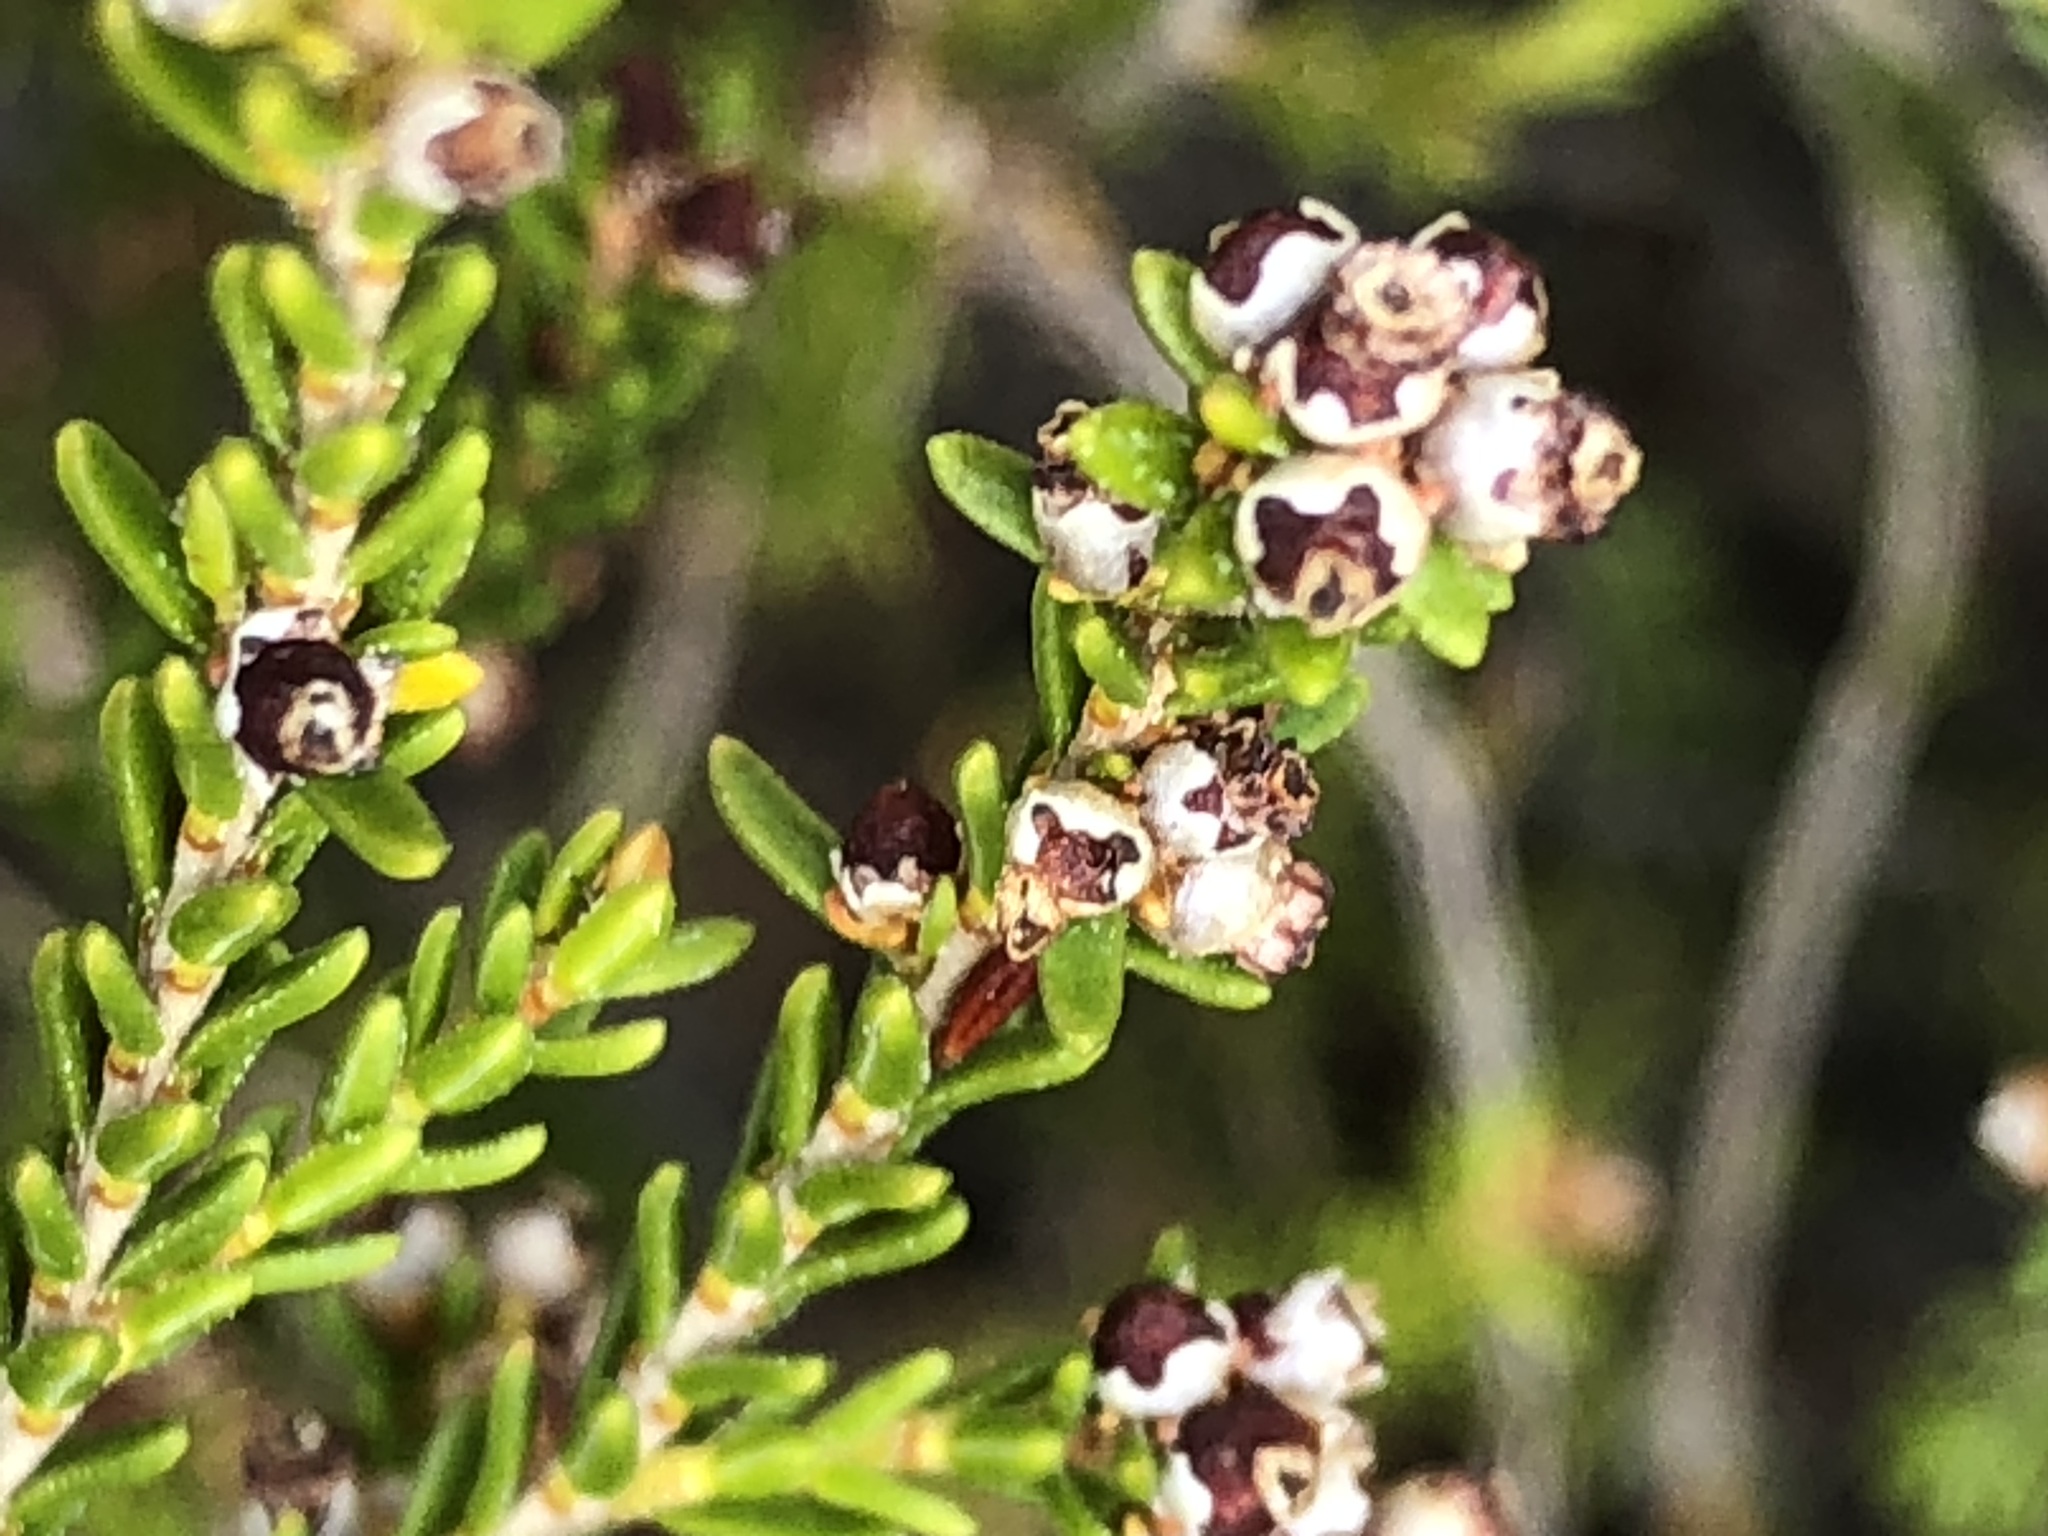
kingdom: Plantae
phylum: Tracheophyta
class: Magnoliopsida
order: Ericales
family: Ericaceae
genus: Erica
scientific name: Erica axillaris
